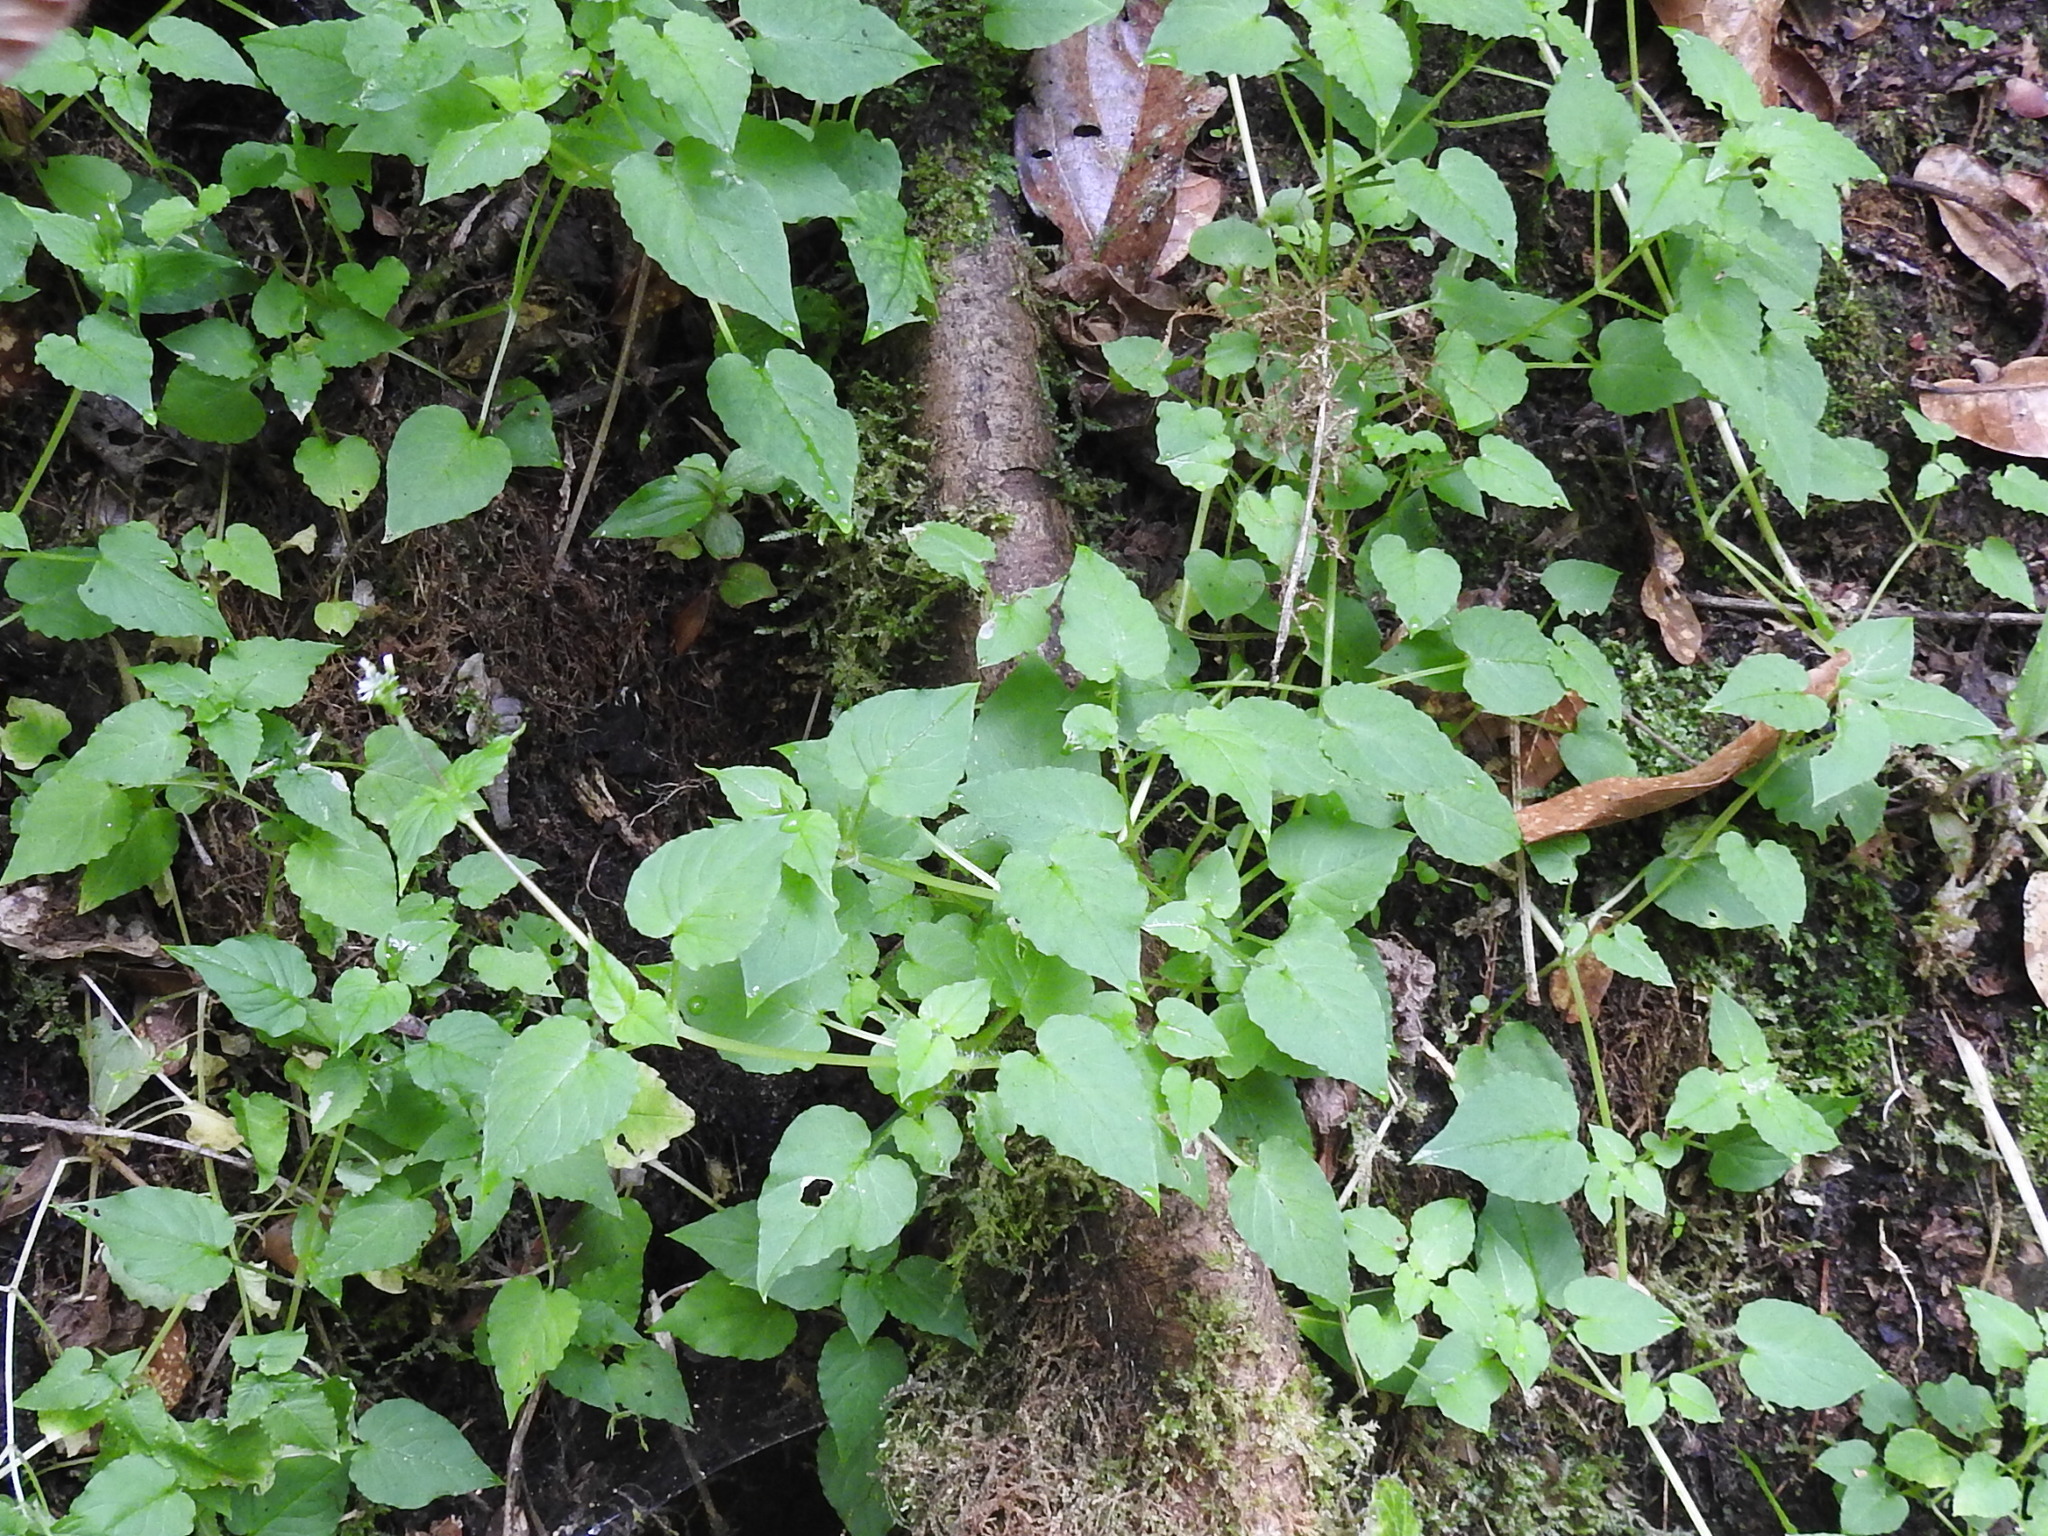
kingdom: Plantae
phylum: Tracheophyta
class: Magnoliopsida
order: Caryophyllales
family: Caryophyllaceae
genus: Stellaria
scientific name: Stellaria irazuensis
